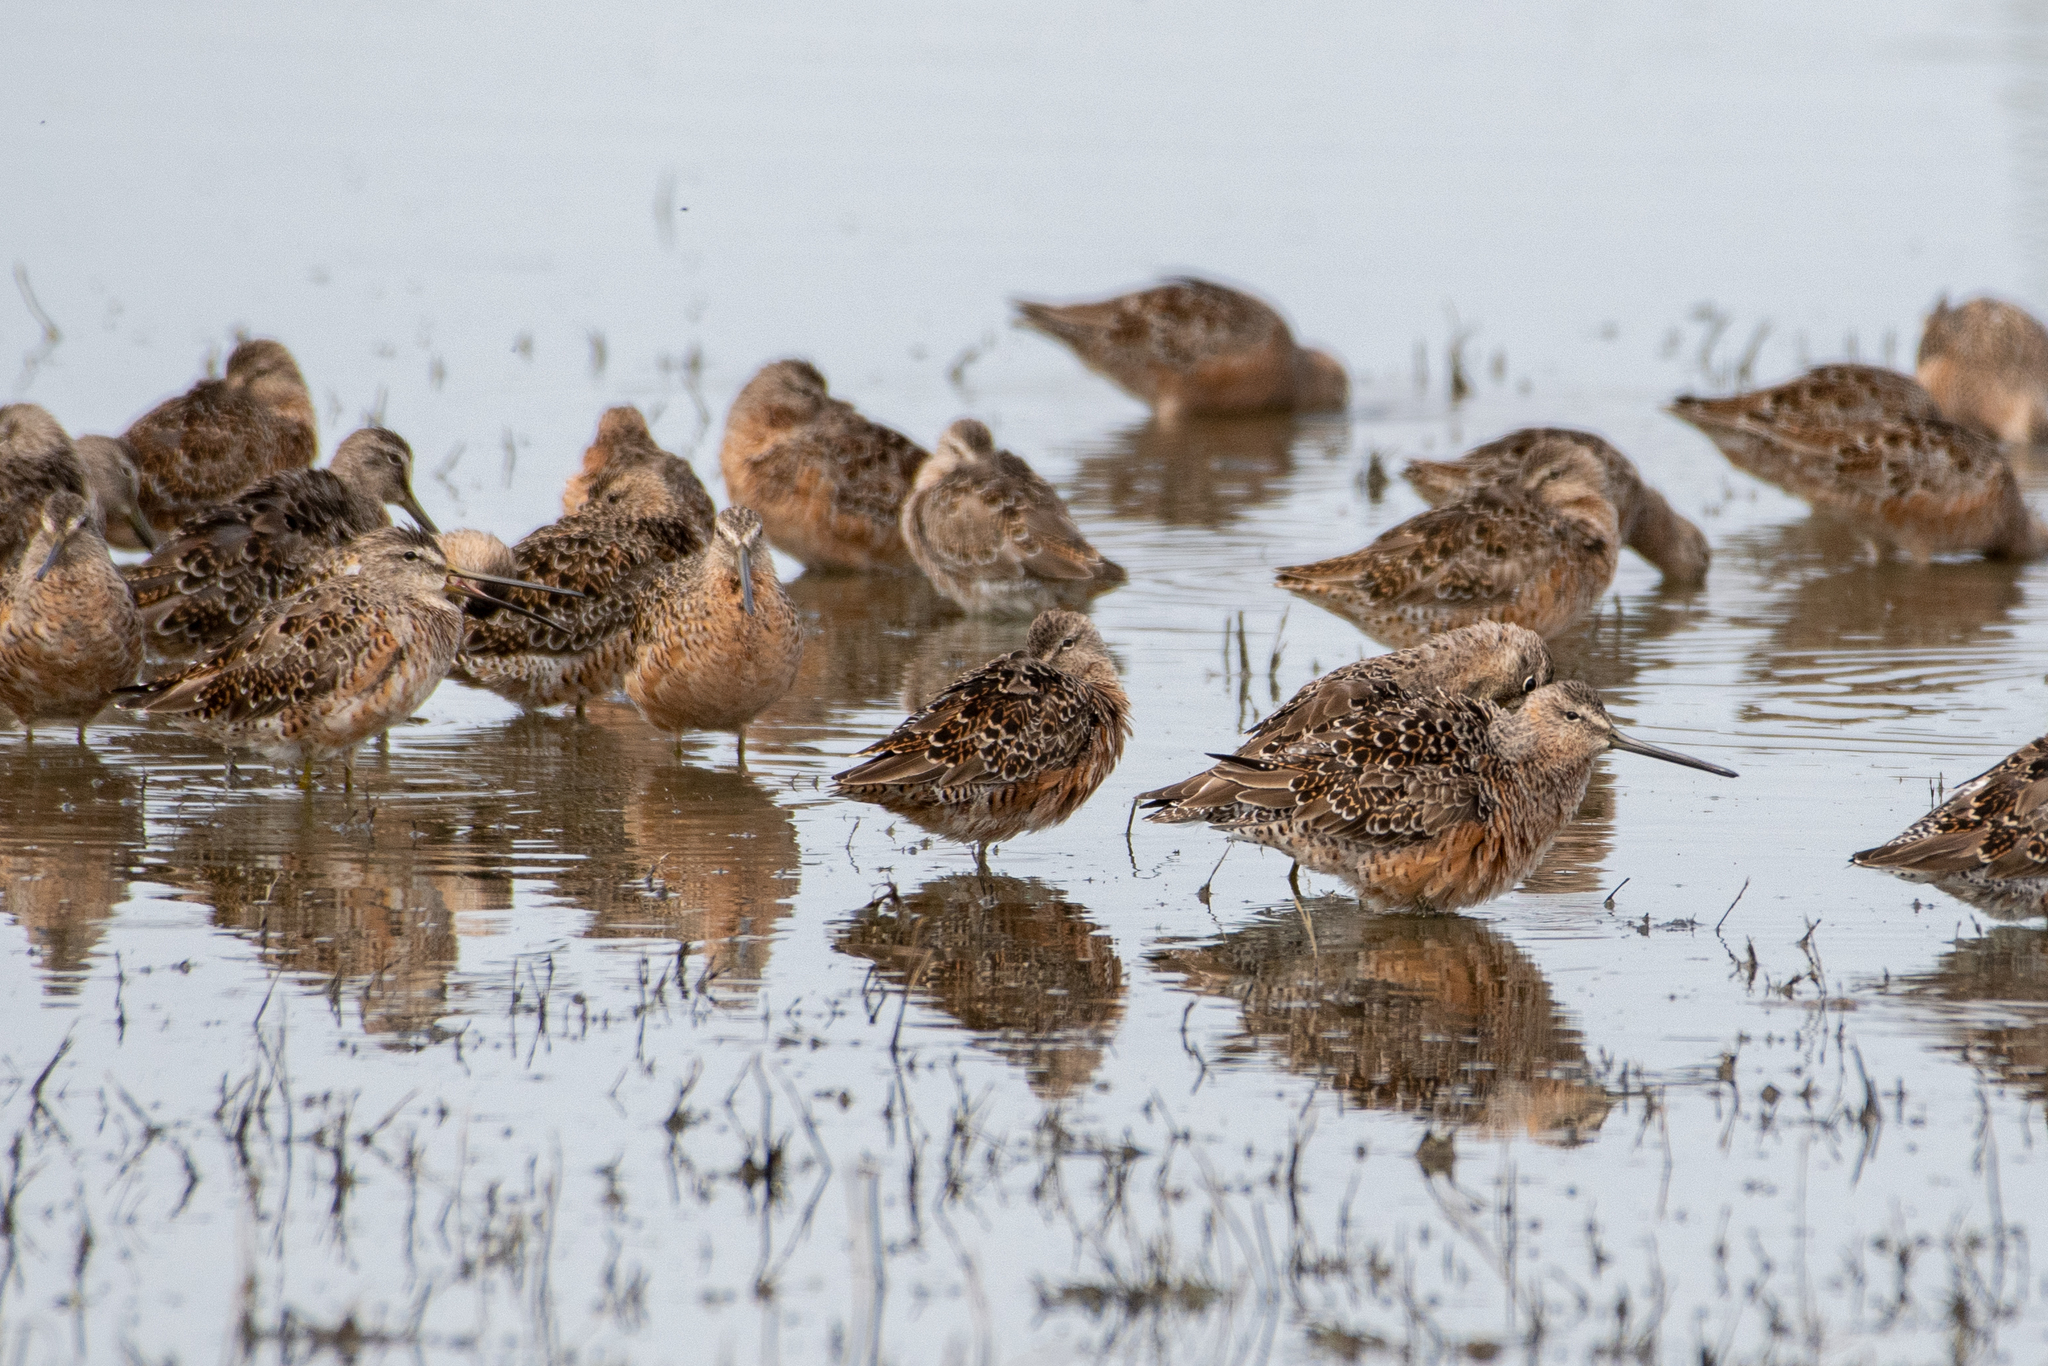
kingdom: Animalia
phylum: Chordata
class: Aves
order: Charadriiformes
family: Scolopacidae
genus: Limnodromus
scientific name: Limnodromus scolopaceus
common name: Long-billed dowitcher
